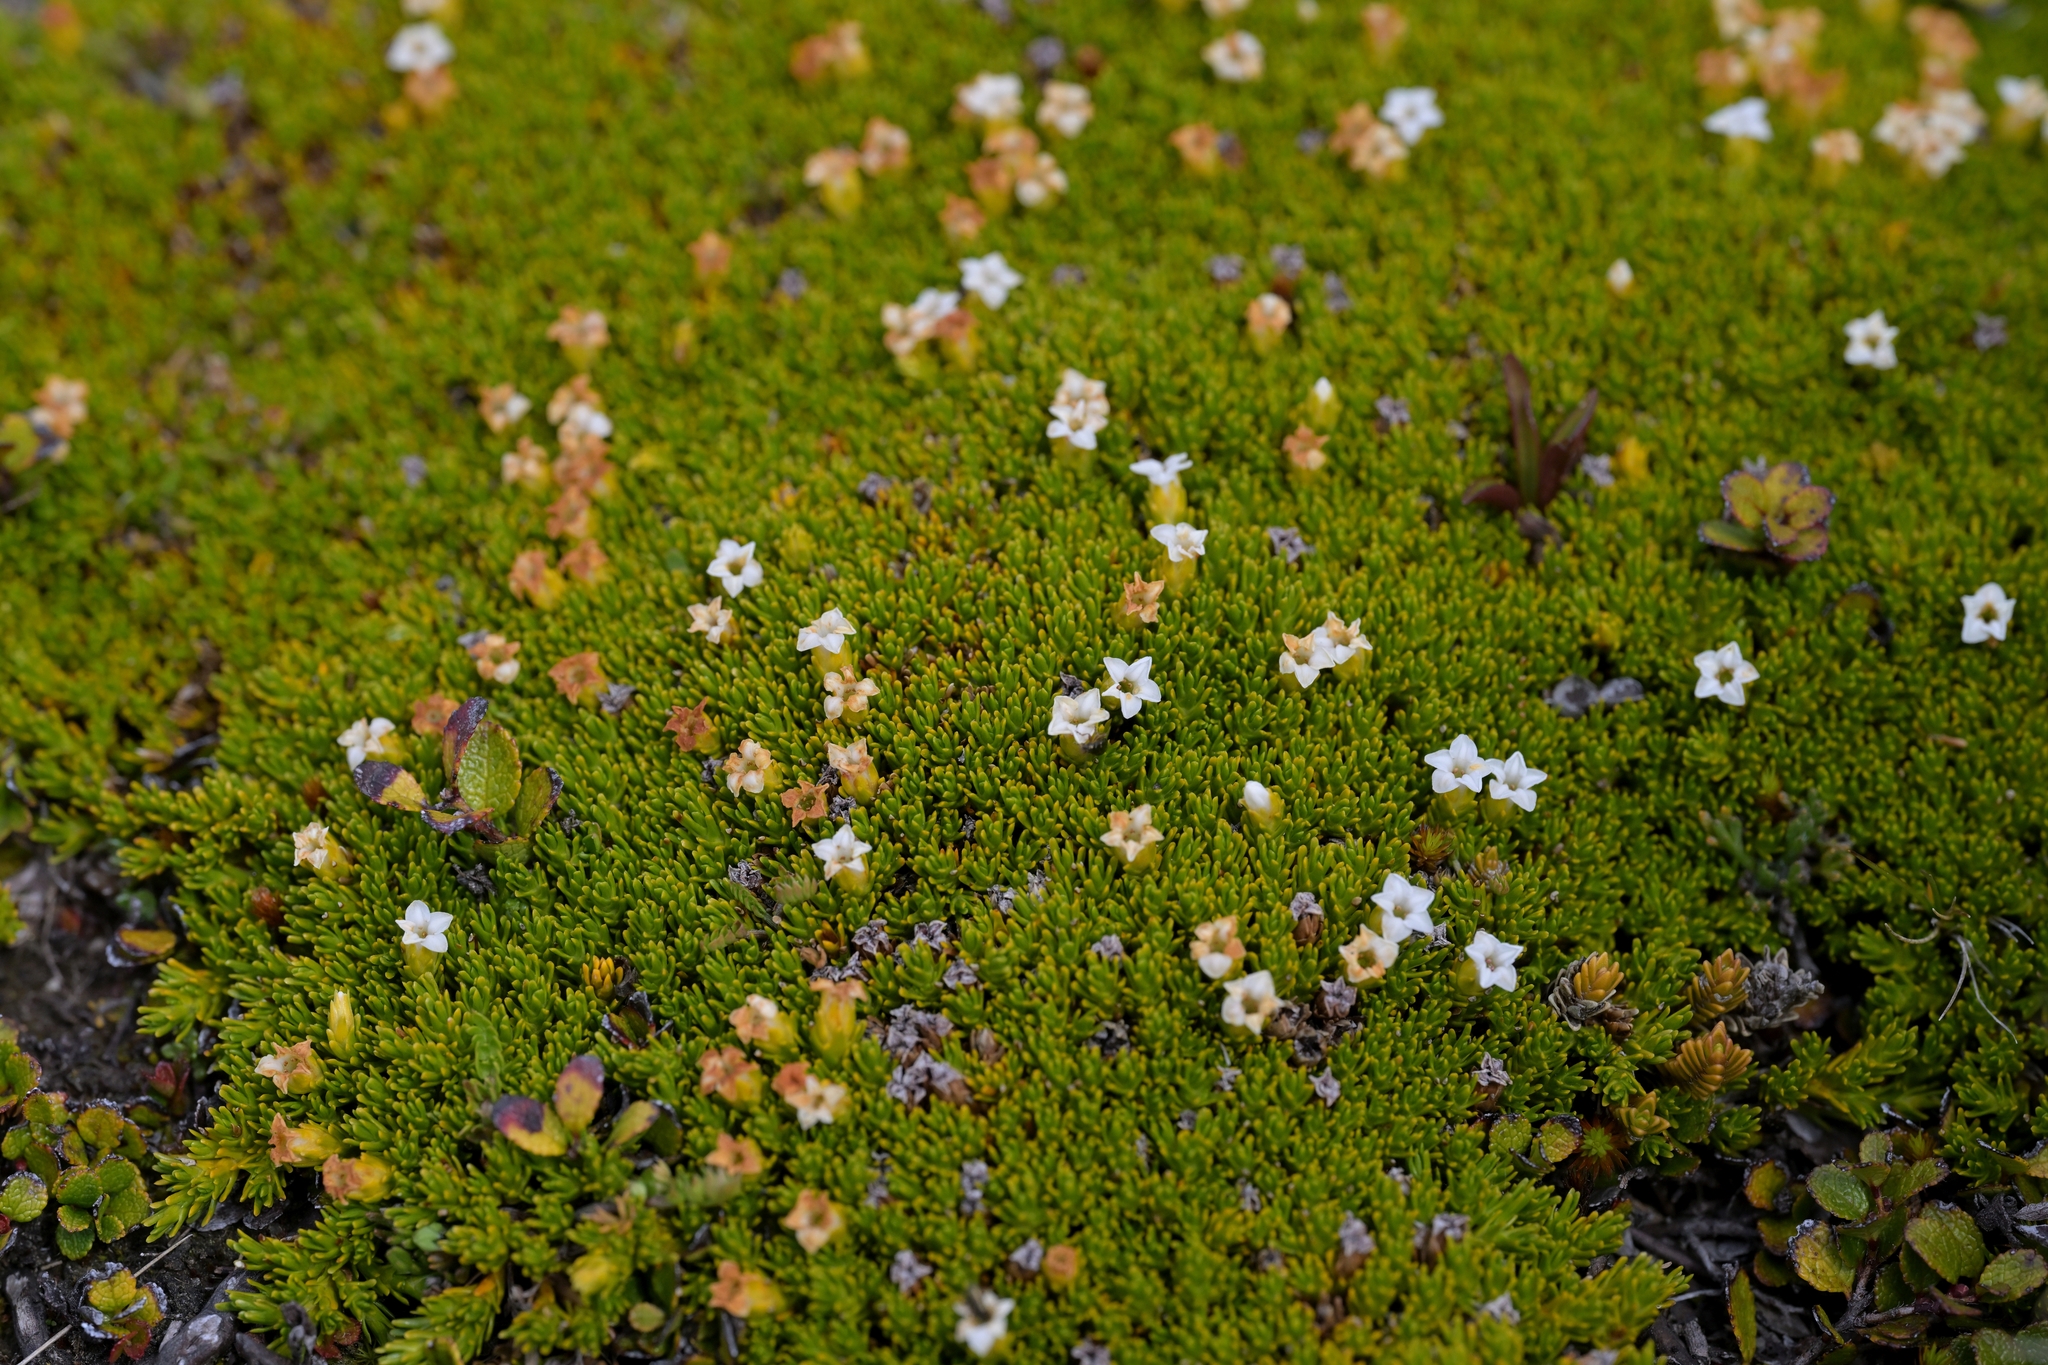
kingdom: Plantae
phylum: Tracheophyta
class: Magnoliopsida
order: Ericales
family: Ericaceae
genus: Dracophyllum
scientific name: Dracophyllum muscoides
